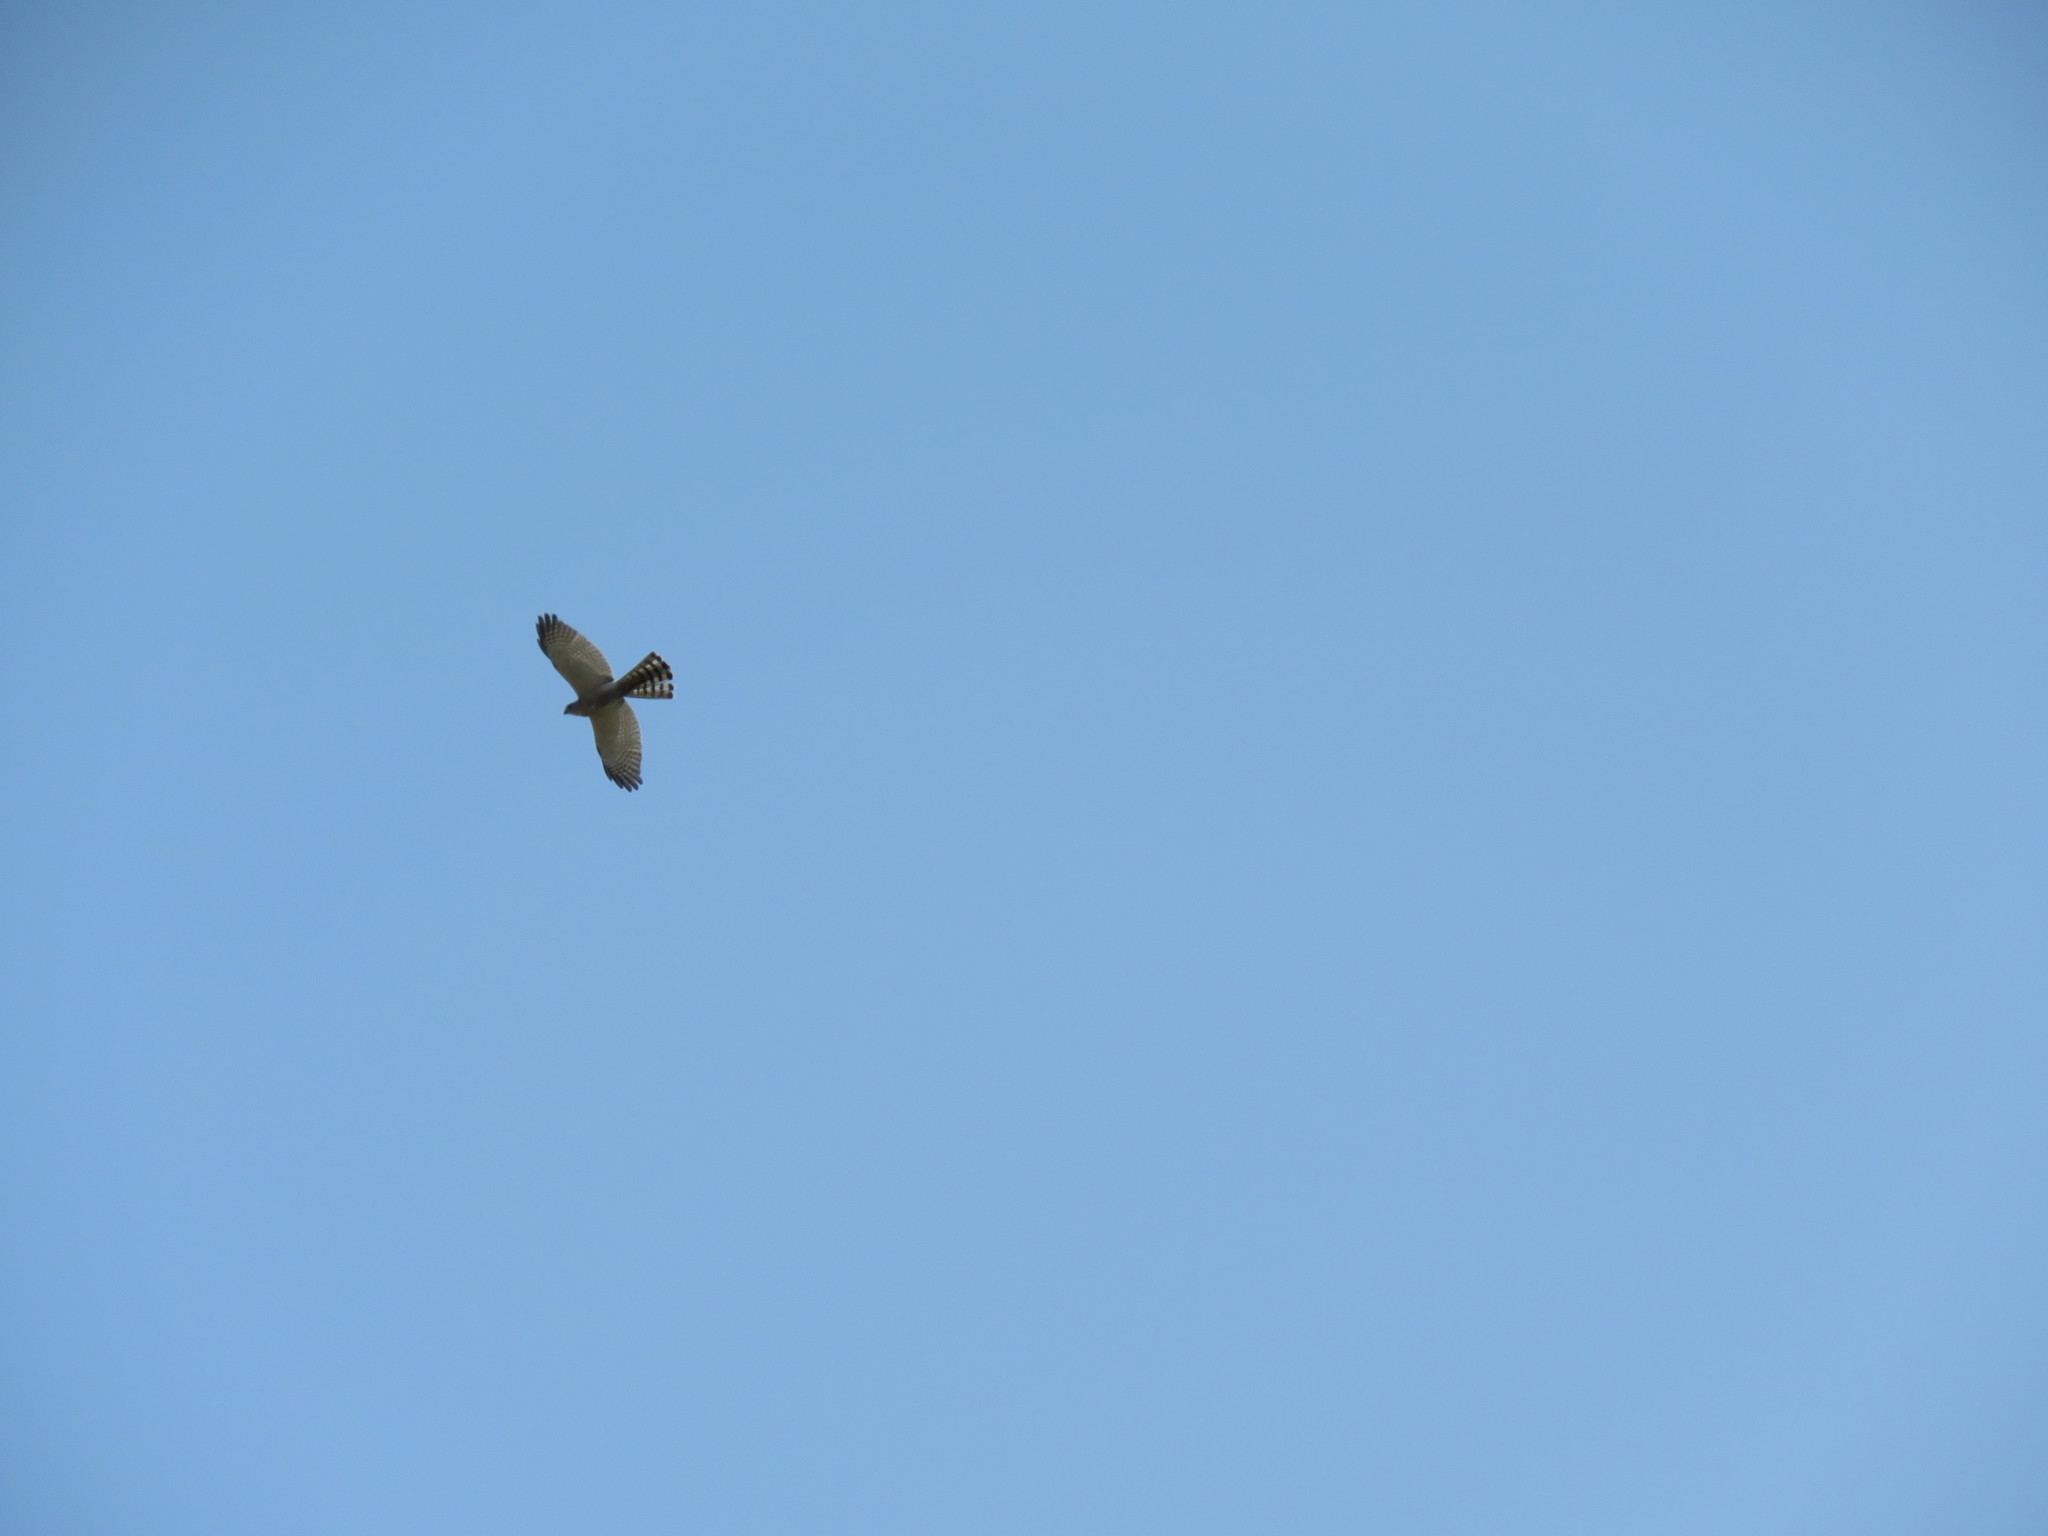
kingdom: Animalia
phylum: Chordata
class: Aves
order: Accipitriformes
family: Accipitridae
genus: Accipiter
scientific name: Accipiter badius
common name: Shikra
